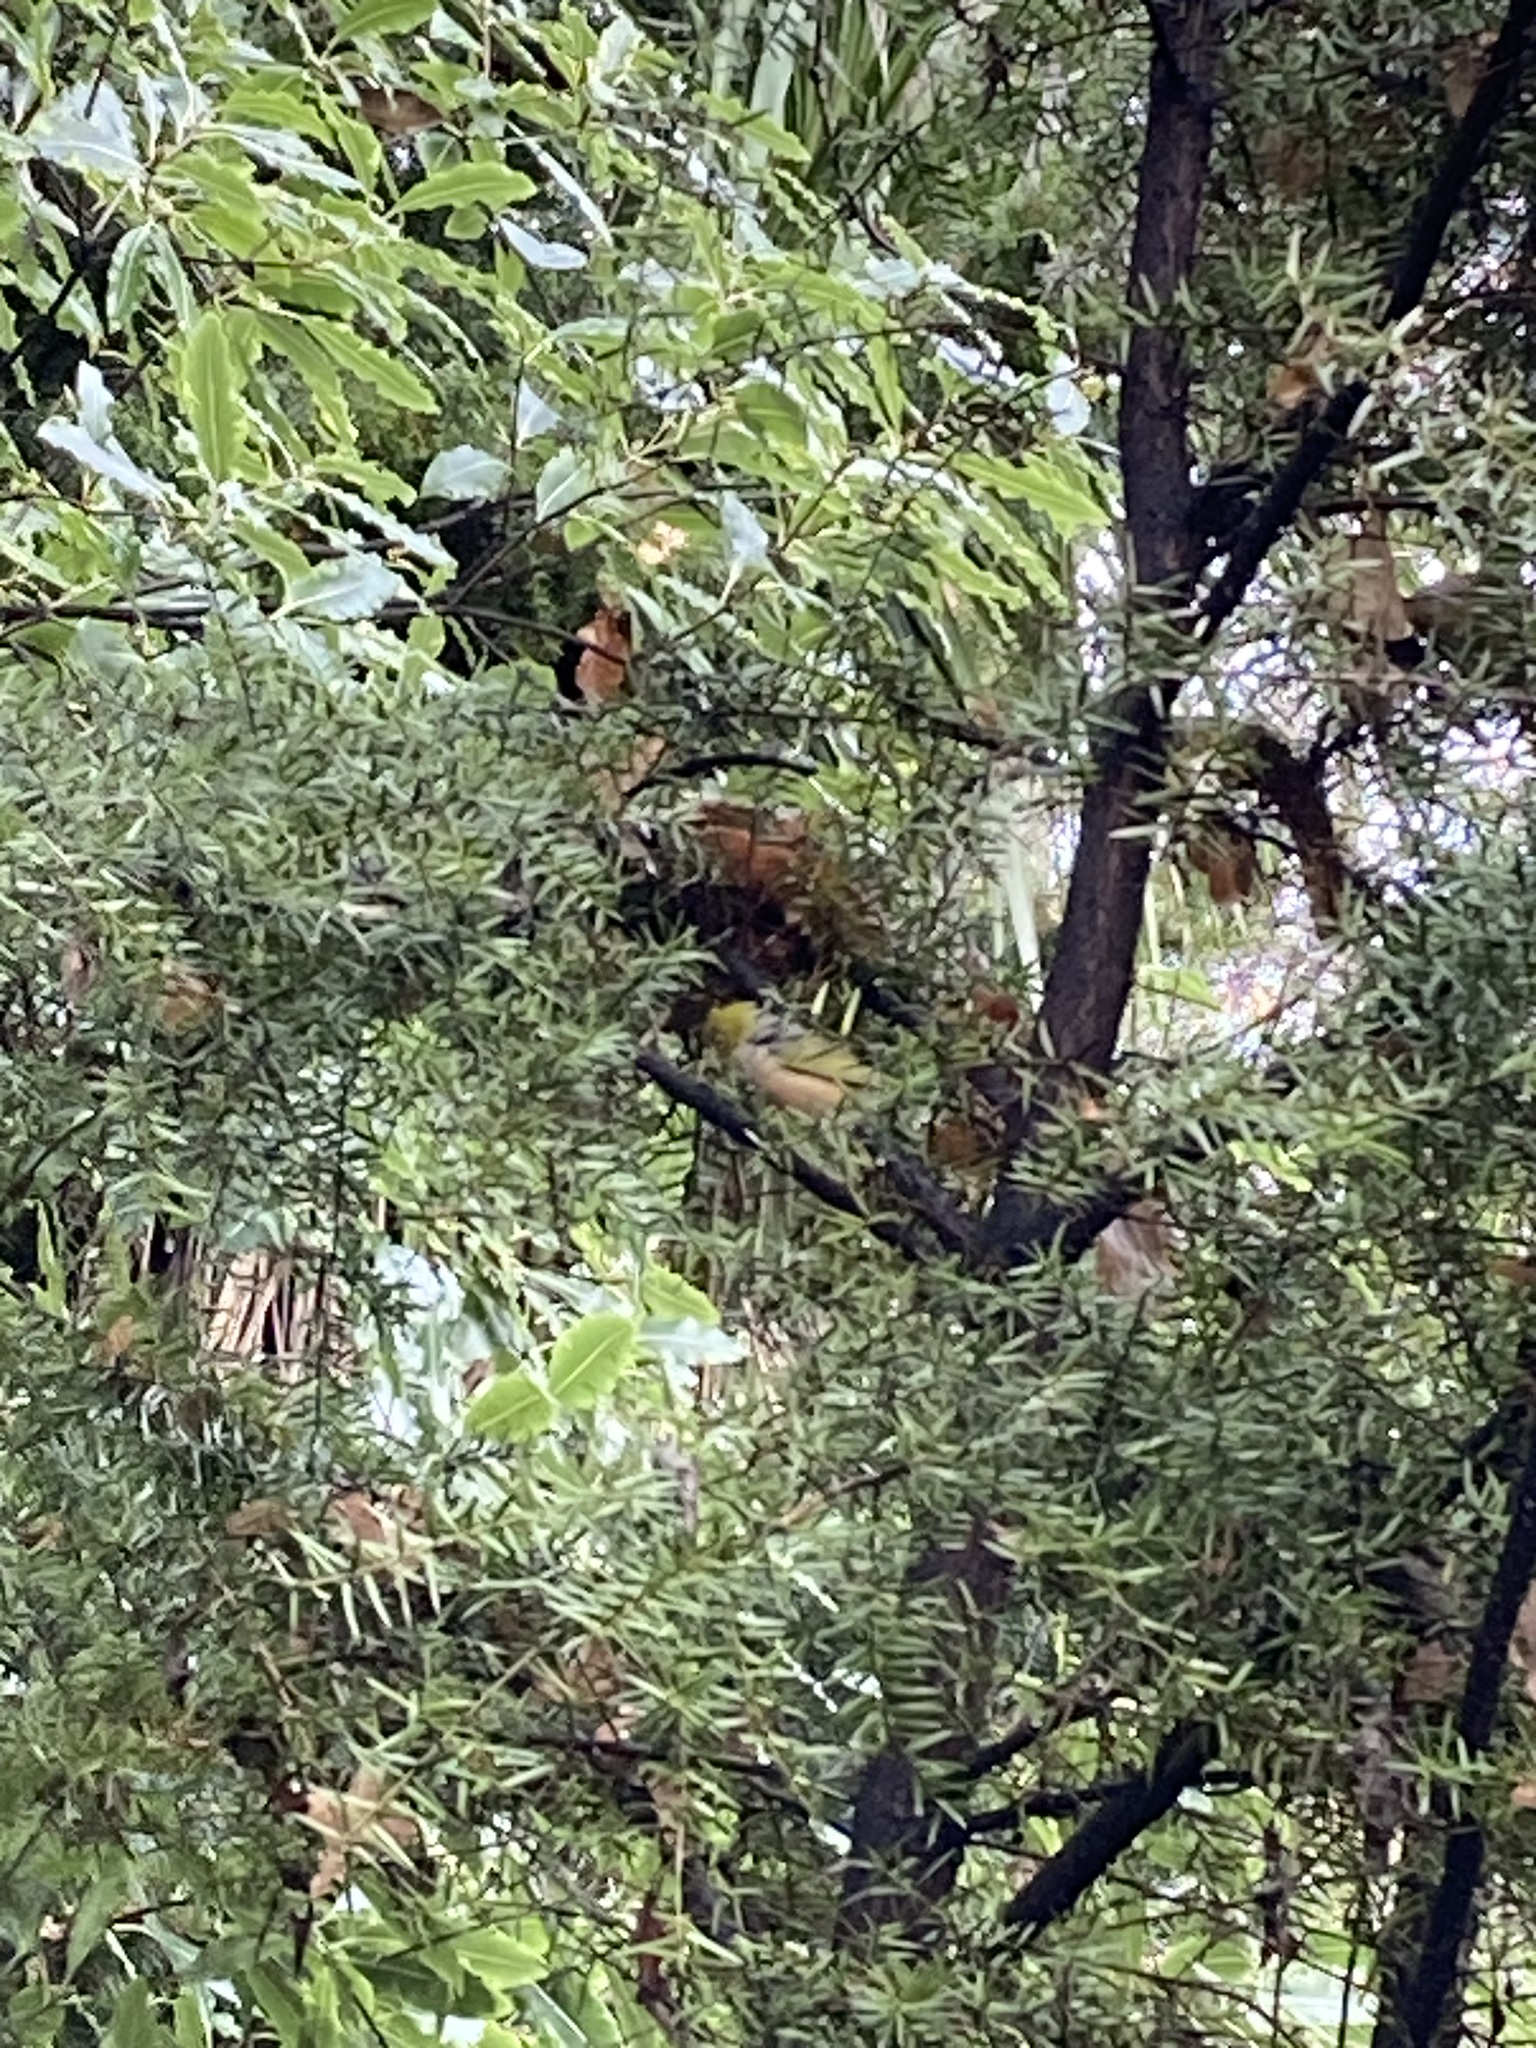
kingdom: Animalia
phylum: Chordata
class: Aves
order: Passeriformes
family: Zosteropidae
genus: Zosterops
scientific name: Zosterops lateralis
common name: Silvereye
